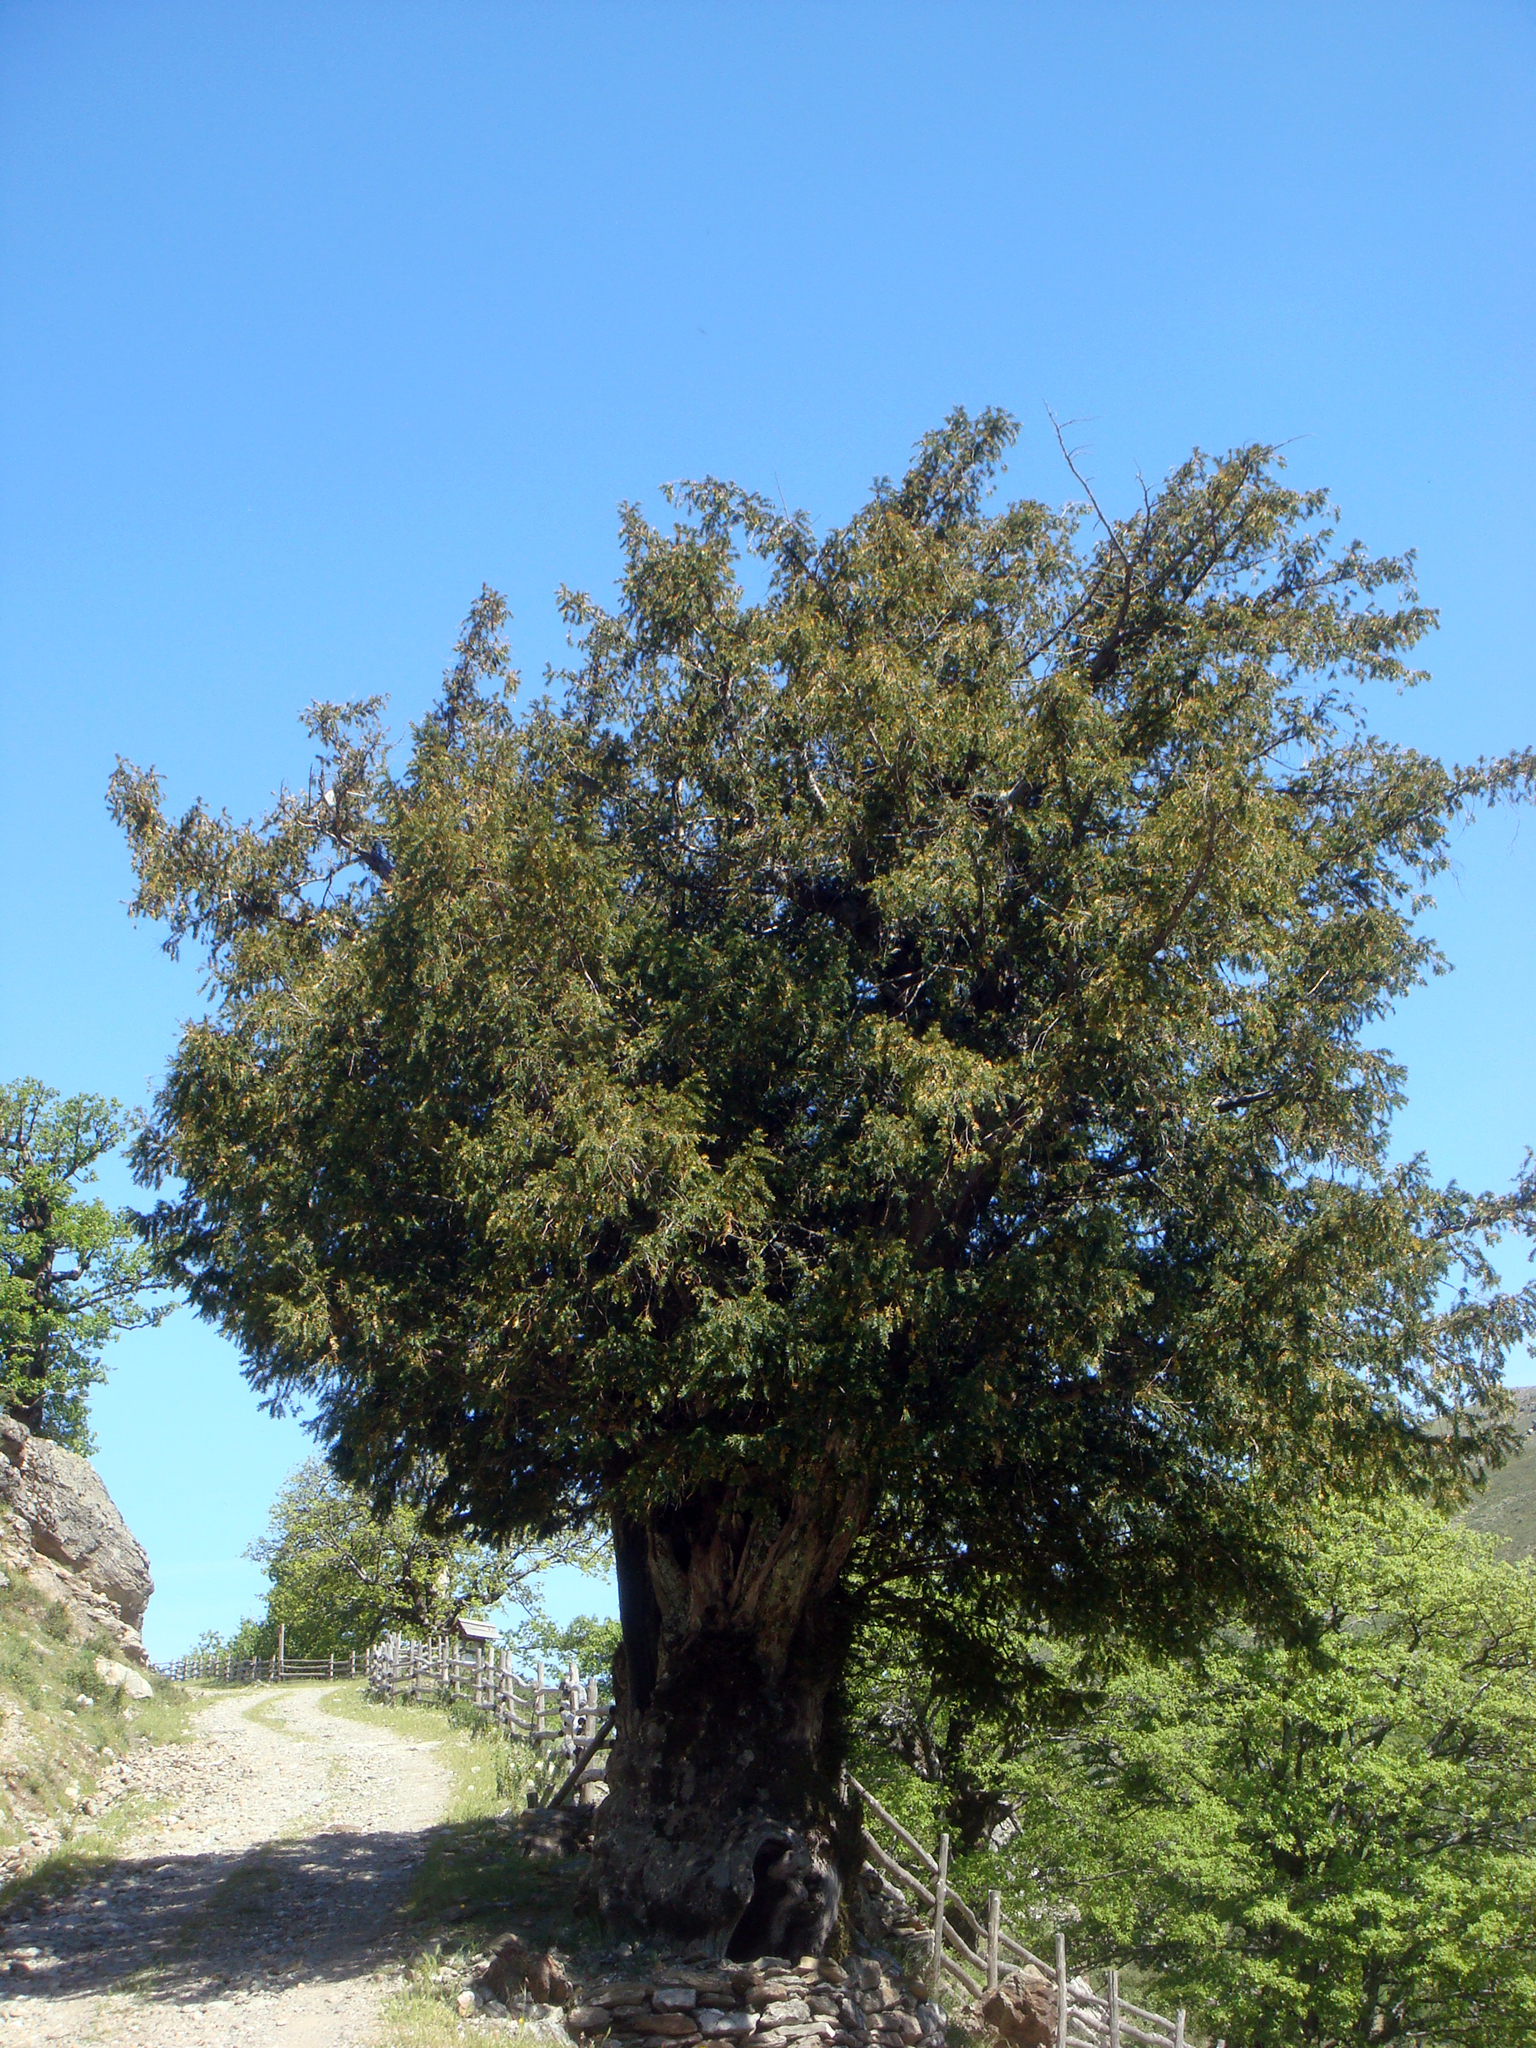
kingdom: Plantae
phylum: Tracheophyta
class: Pinopsida
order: Pinales
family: Taxaceae
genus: Taxus
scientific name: Taxus baccata
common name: Yew
